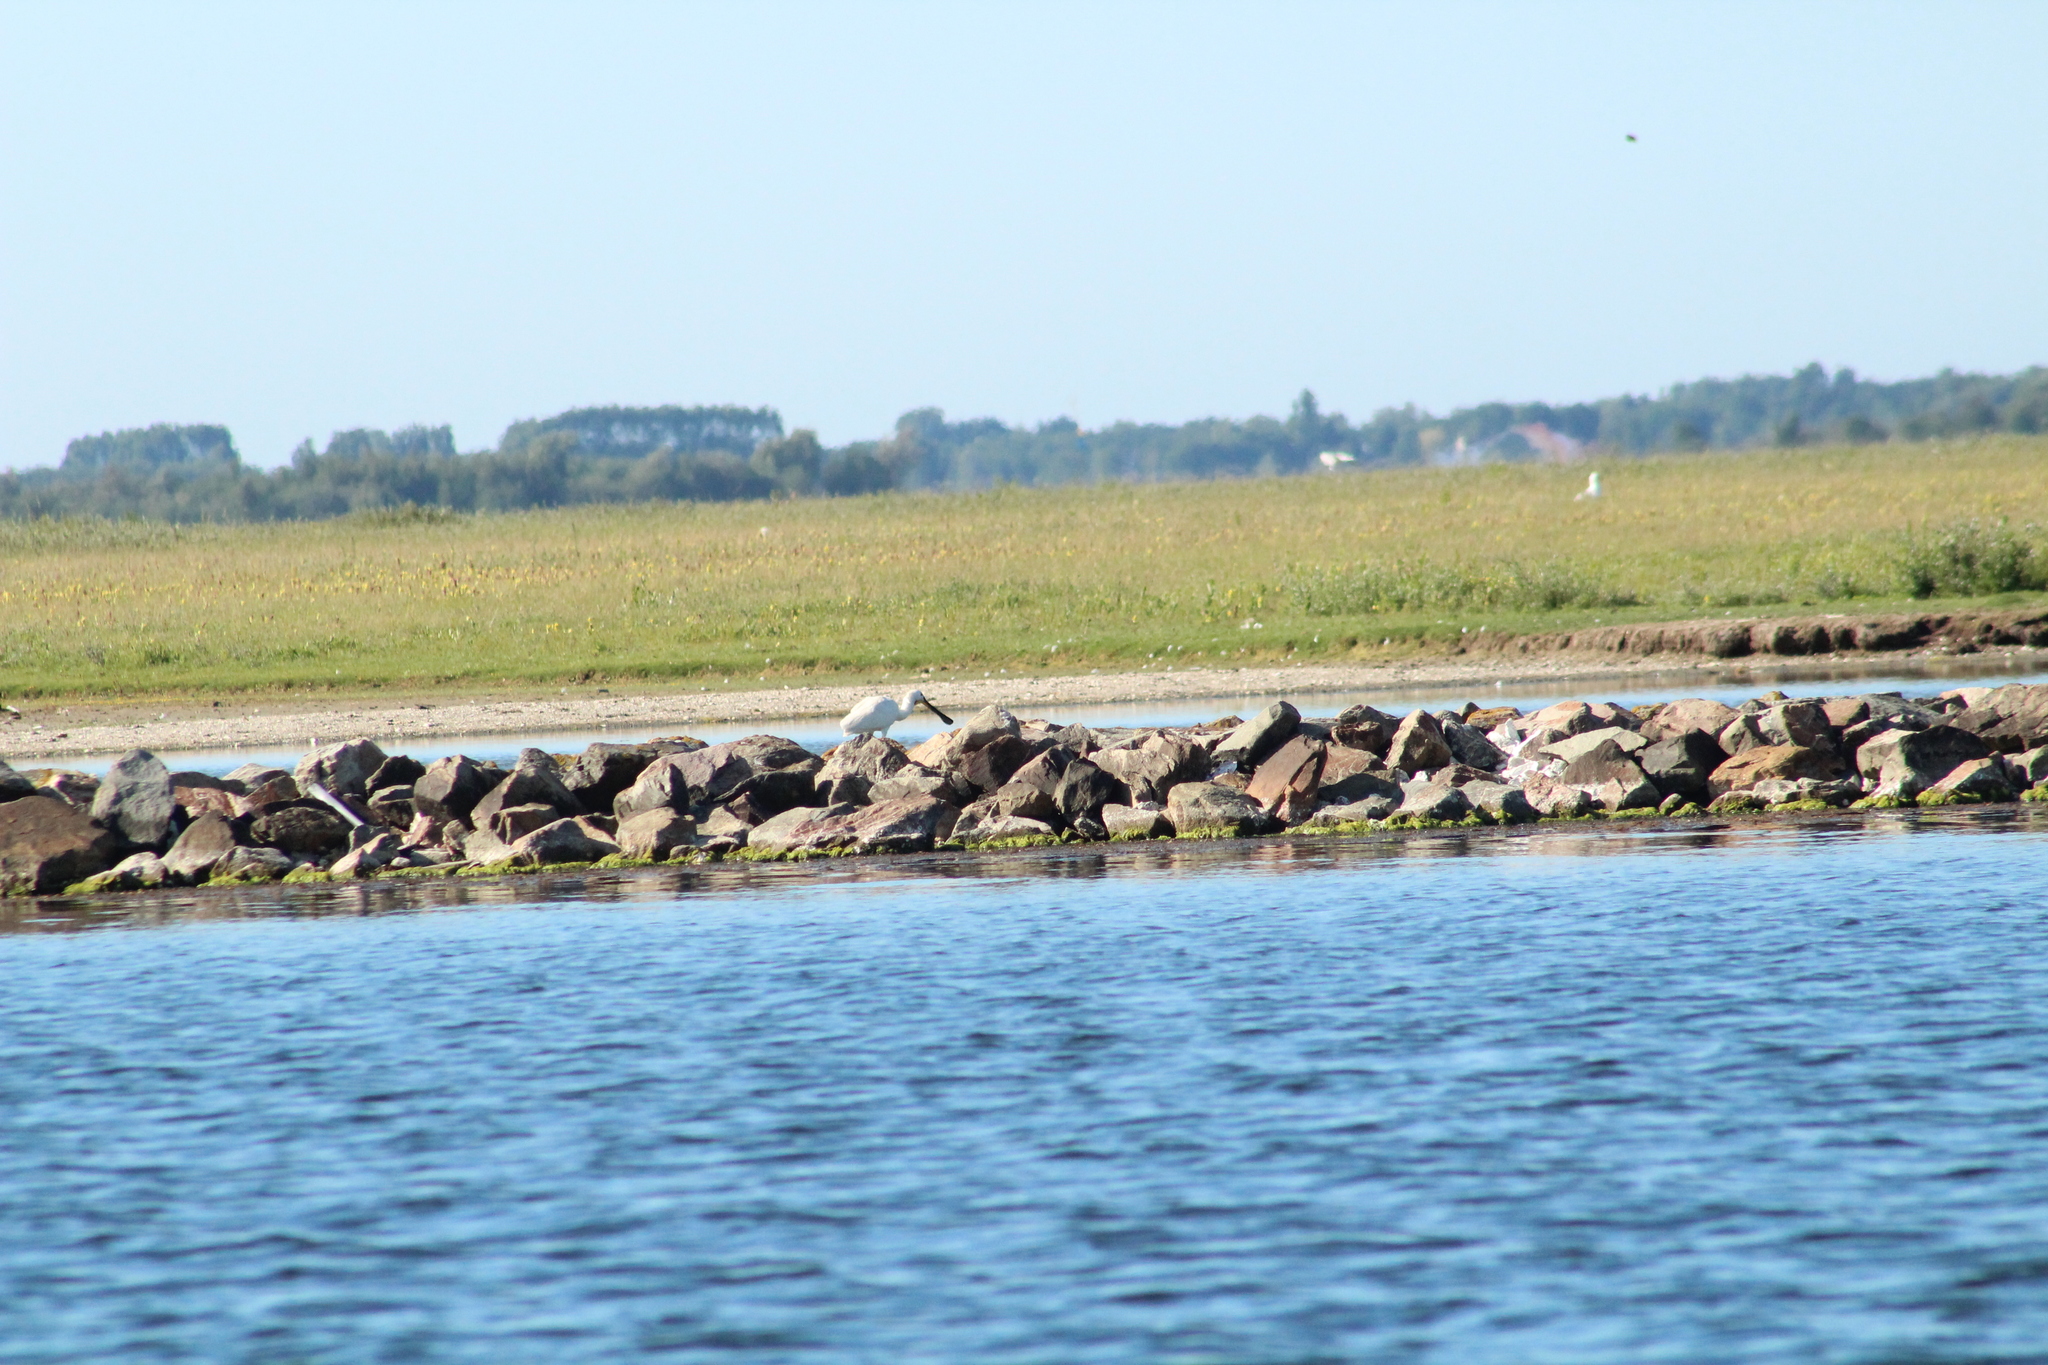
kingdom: Animalia
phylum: Chordata
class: Aves
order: Pelecaniformes
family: Threskiornithidae
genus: Platalea
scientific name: Platalea leucorodia
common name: Eurasian spoonbill
